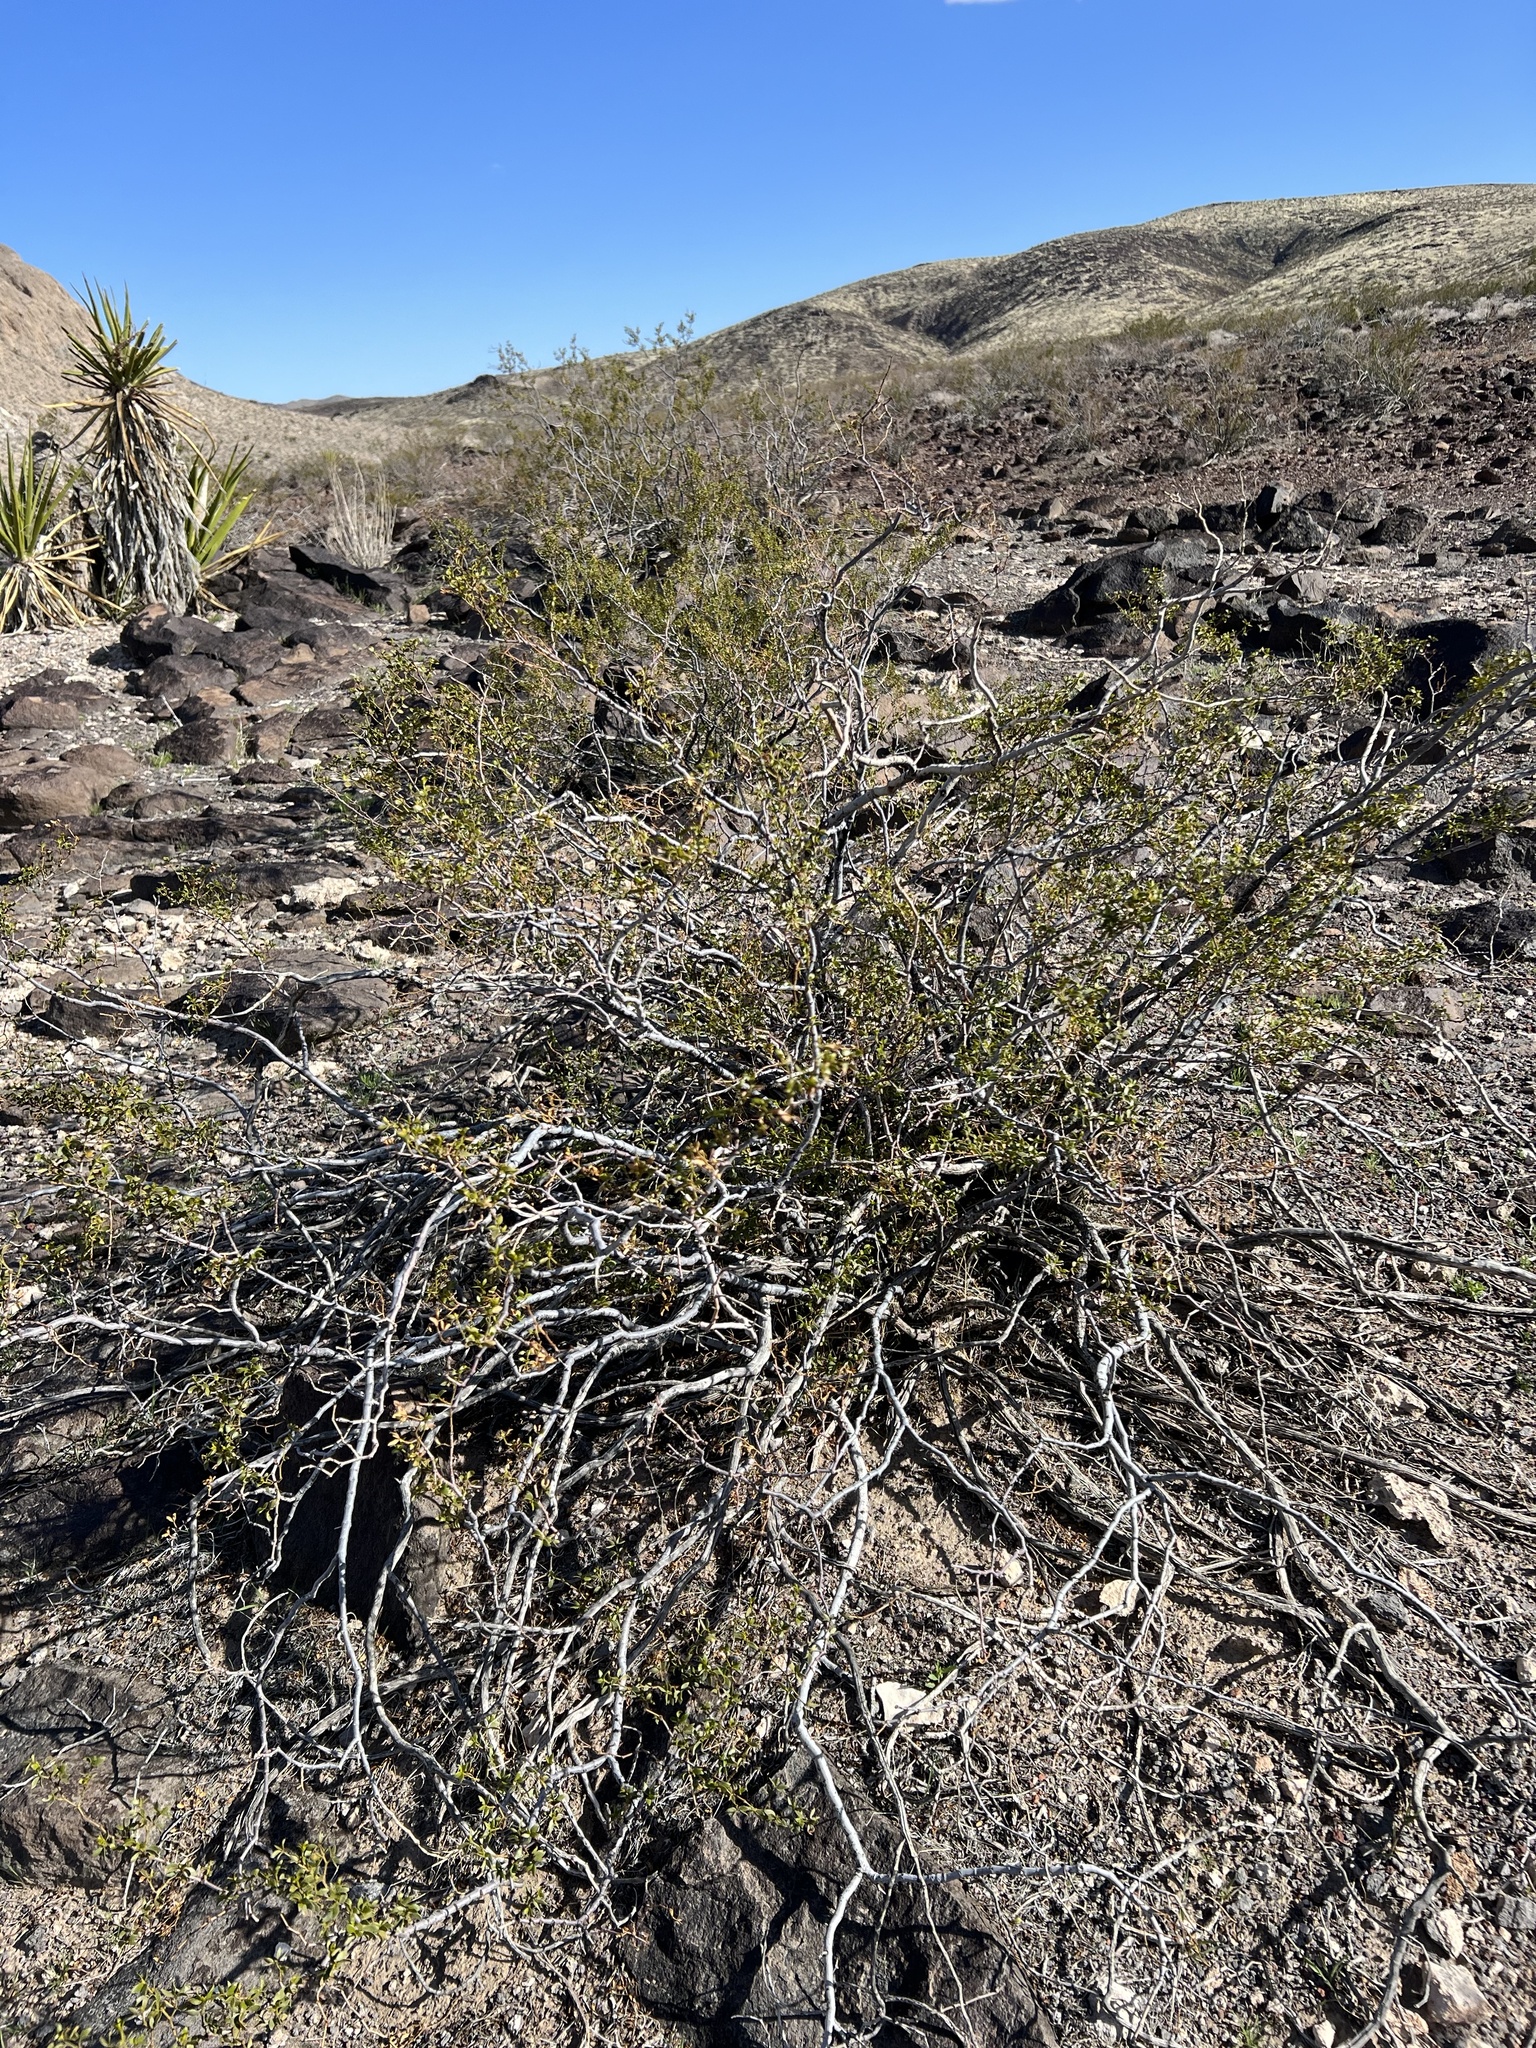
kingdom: Plantae
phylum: Tracheophyta
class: Magnoliopsida
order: Zygophyllales
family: Zygophyllaceae
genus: Larrea
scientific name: Larrea tridentata
